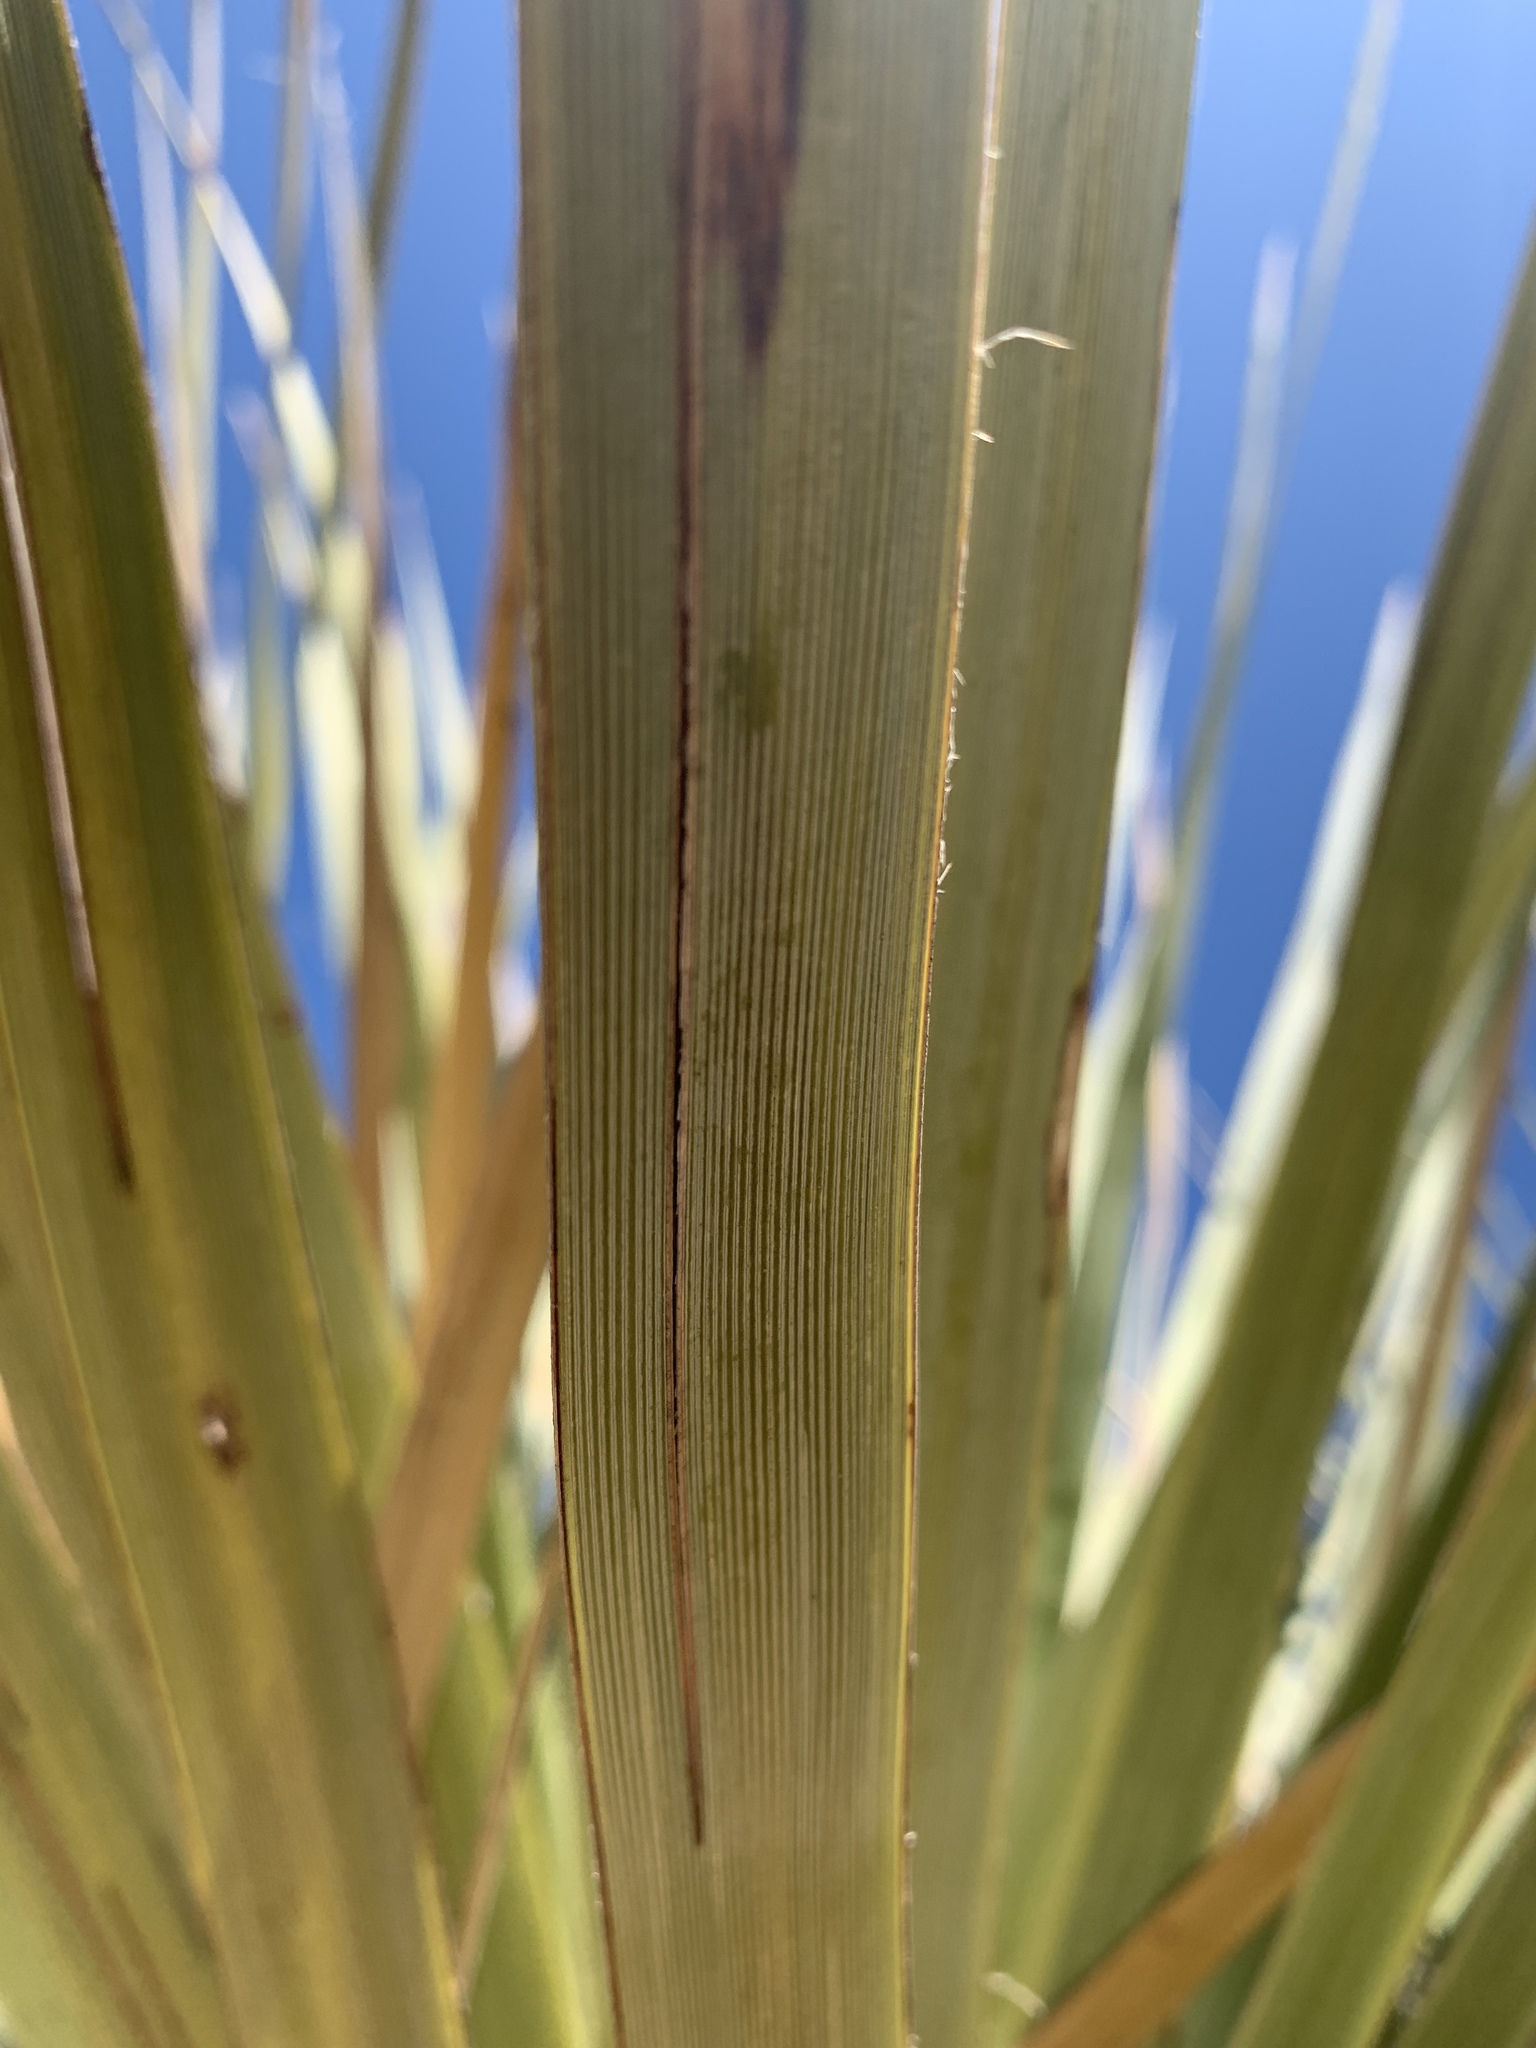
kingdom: Plantae
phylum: Tracheophyta
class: Liliopsida
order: Asparagales
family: Asparagaceae
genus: Nolina
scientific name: Nolina bigelovii
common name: Bigelow bear-grass
